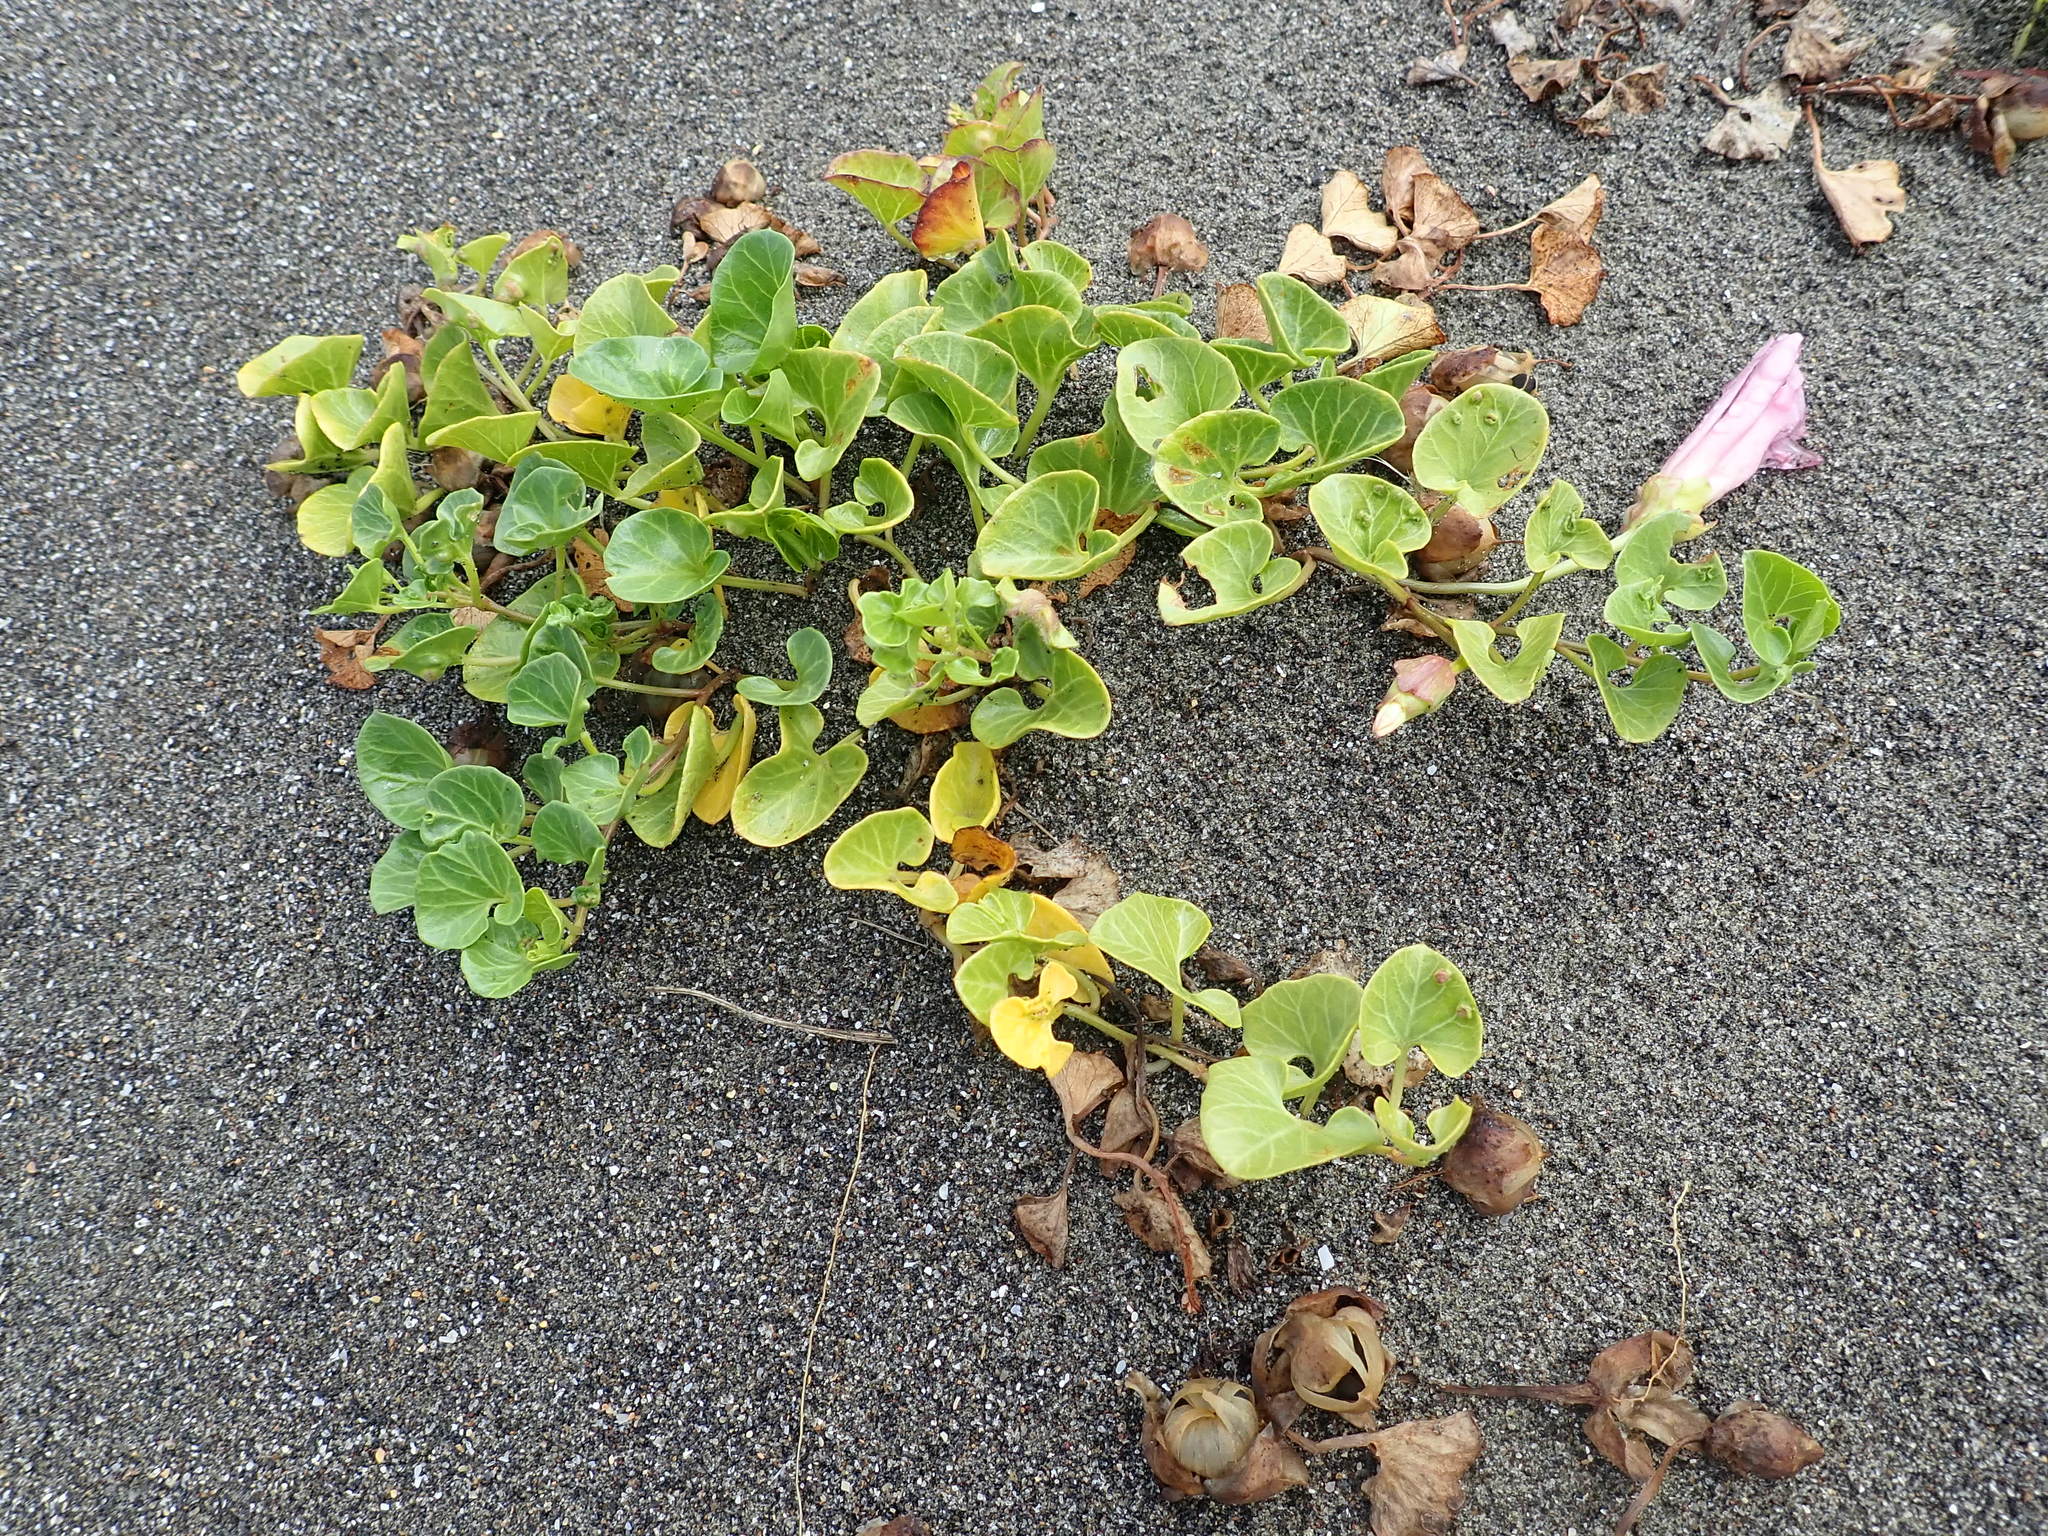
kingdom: Plantae
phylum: Tracheophyta
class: Magnoliopsida
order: Solanales
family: Convolvulaceae
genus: Calystegia
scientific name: Calystegia soldanella
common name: Sea bindweed
